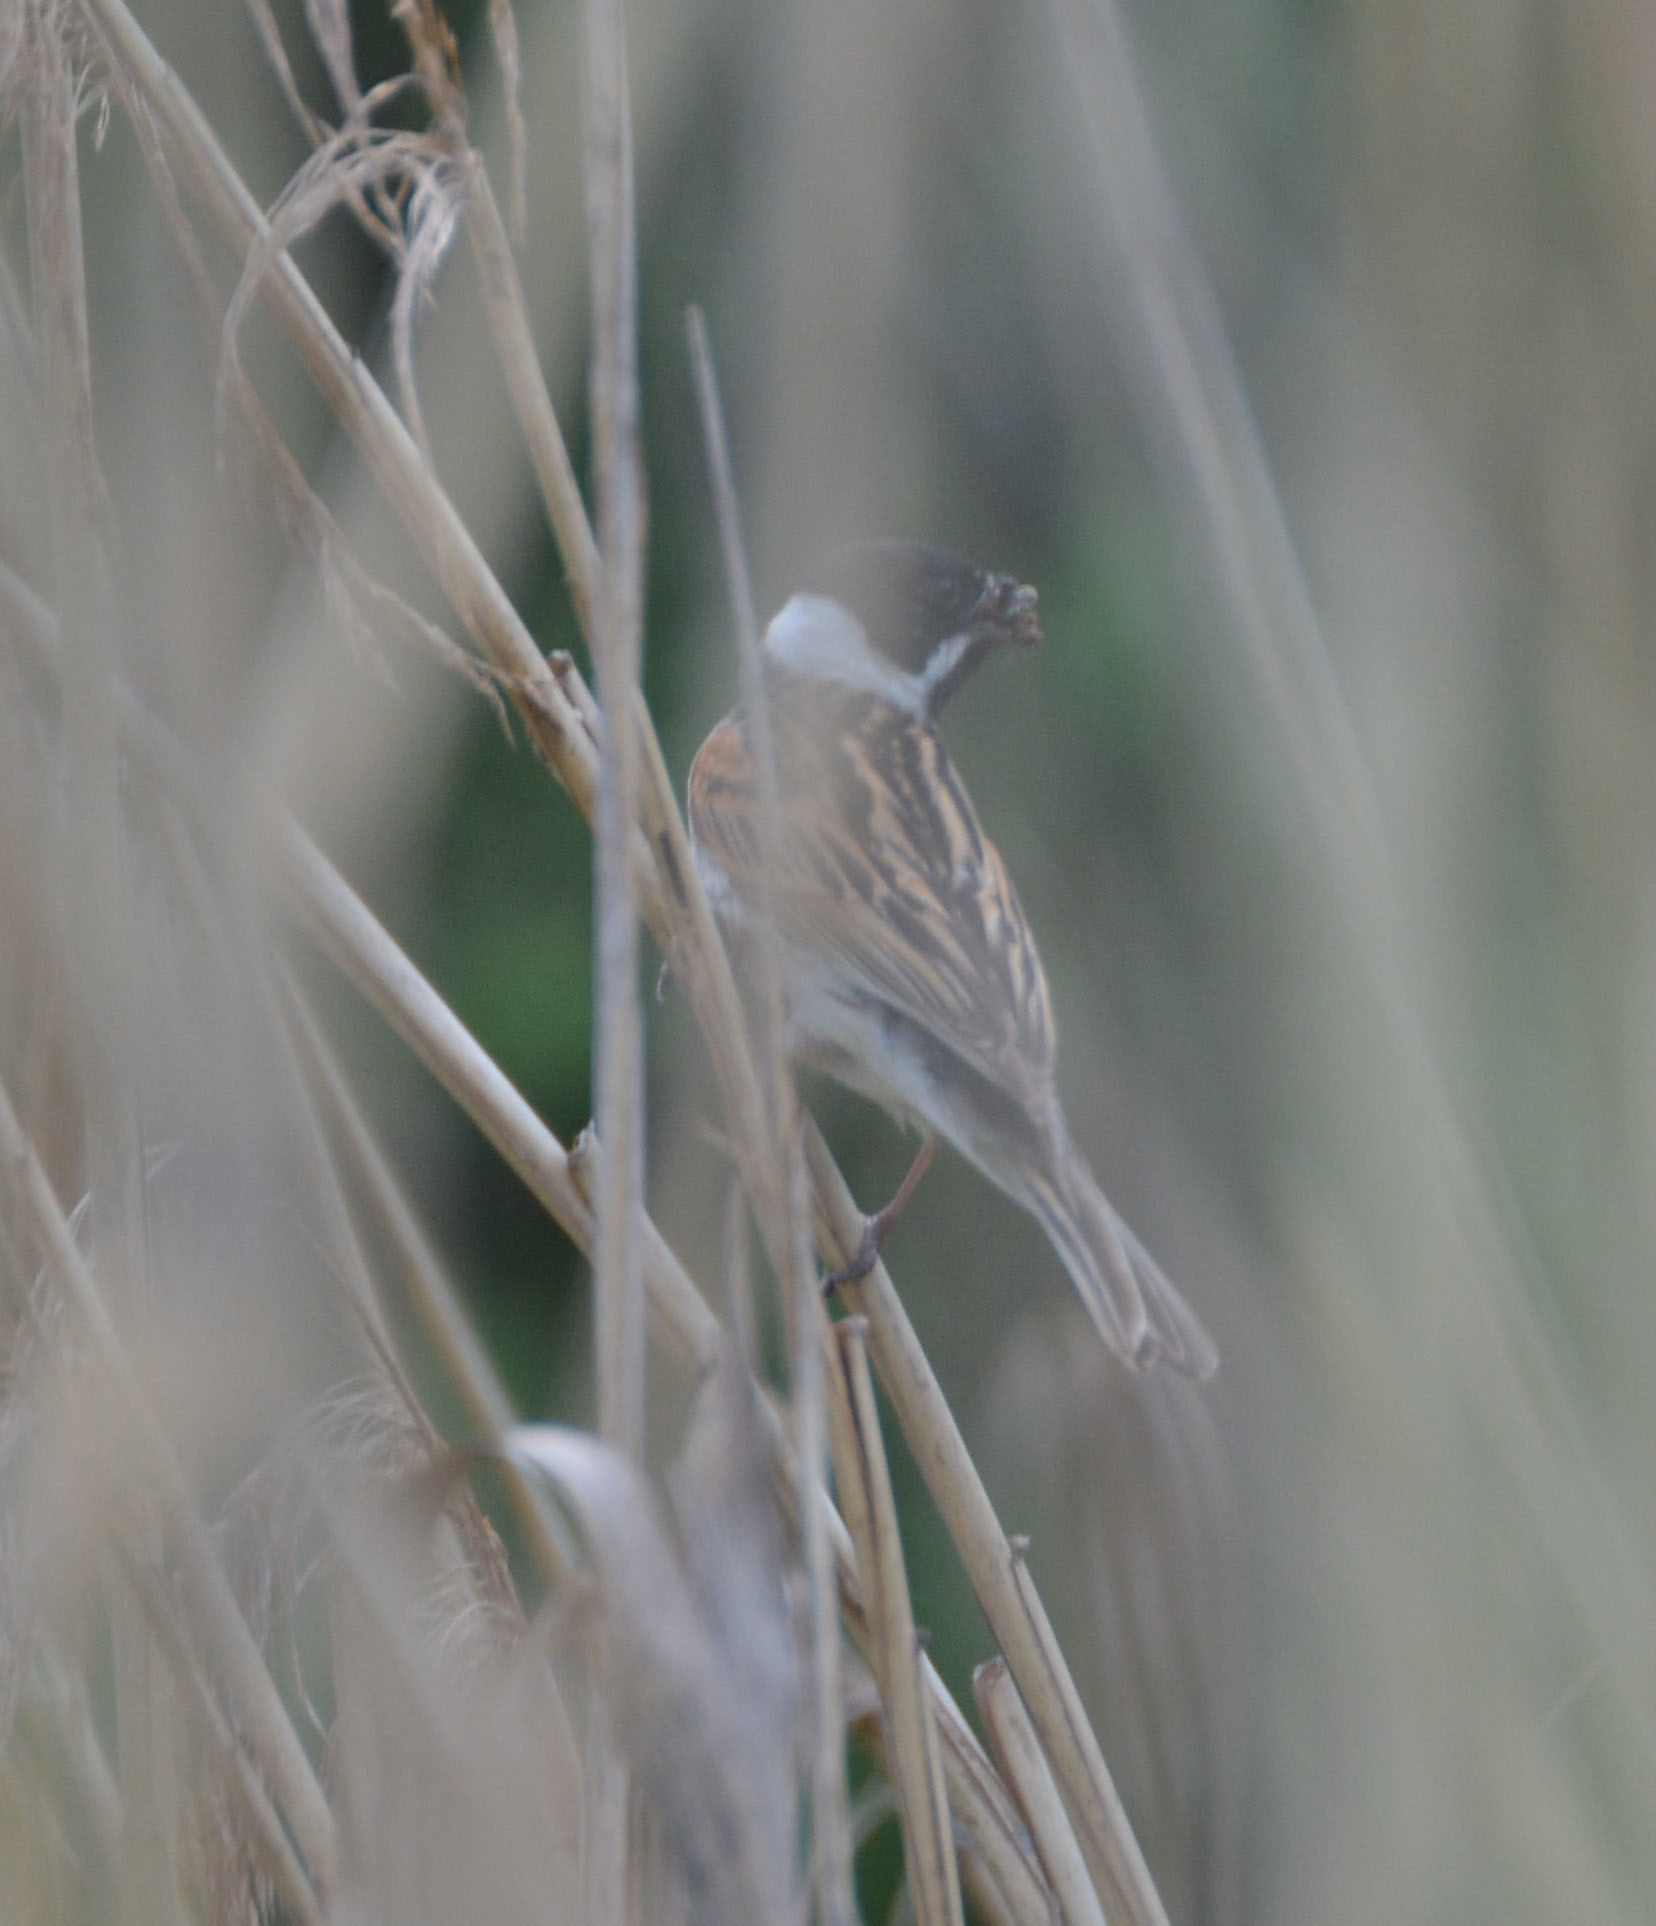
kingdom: Animalia
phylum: Chordata
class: Aves
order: Passeriformes
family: Emberizidae
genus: Emberiza
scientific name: Emberiza schoeniclus
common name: Reed bunting
